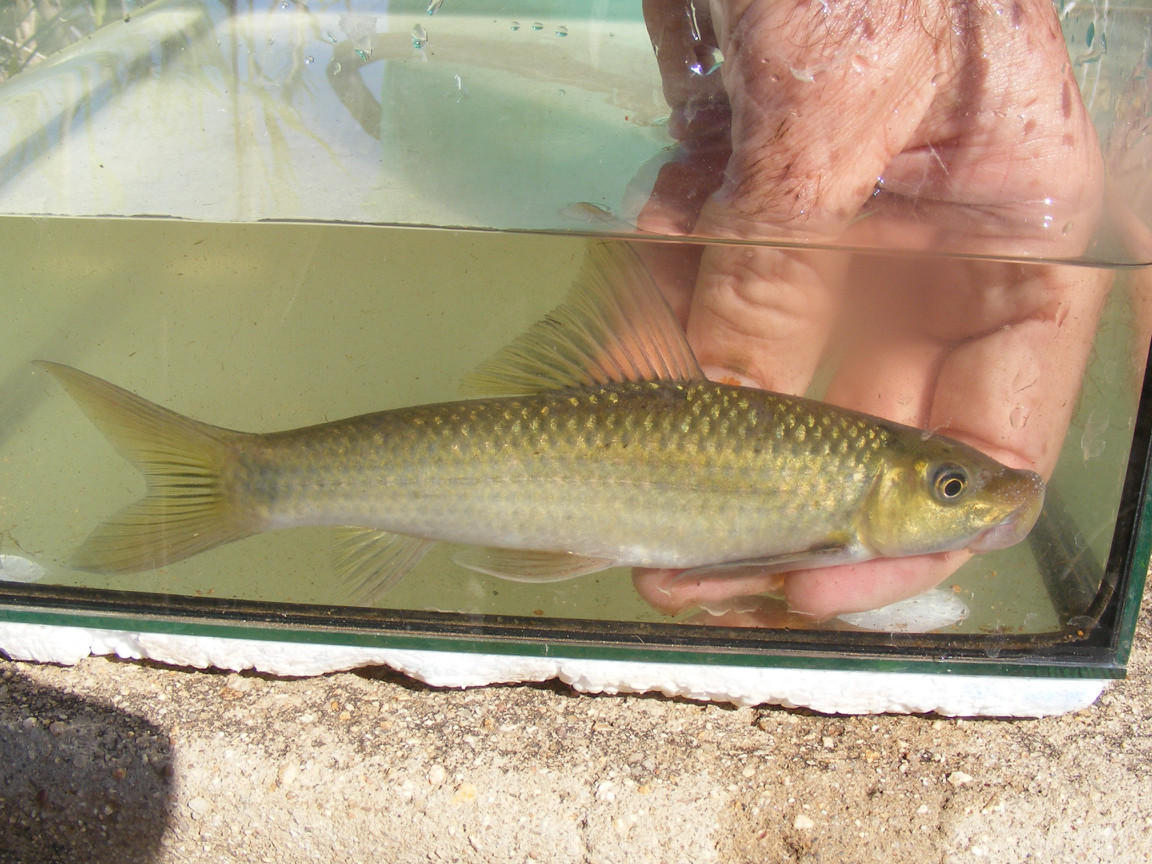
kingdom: Animalia
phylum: Chordata
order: Cypriniformes
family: Cyprinidae
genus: Labeo
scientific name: Labeo molybdinus
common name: Leaden labeo
